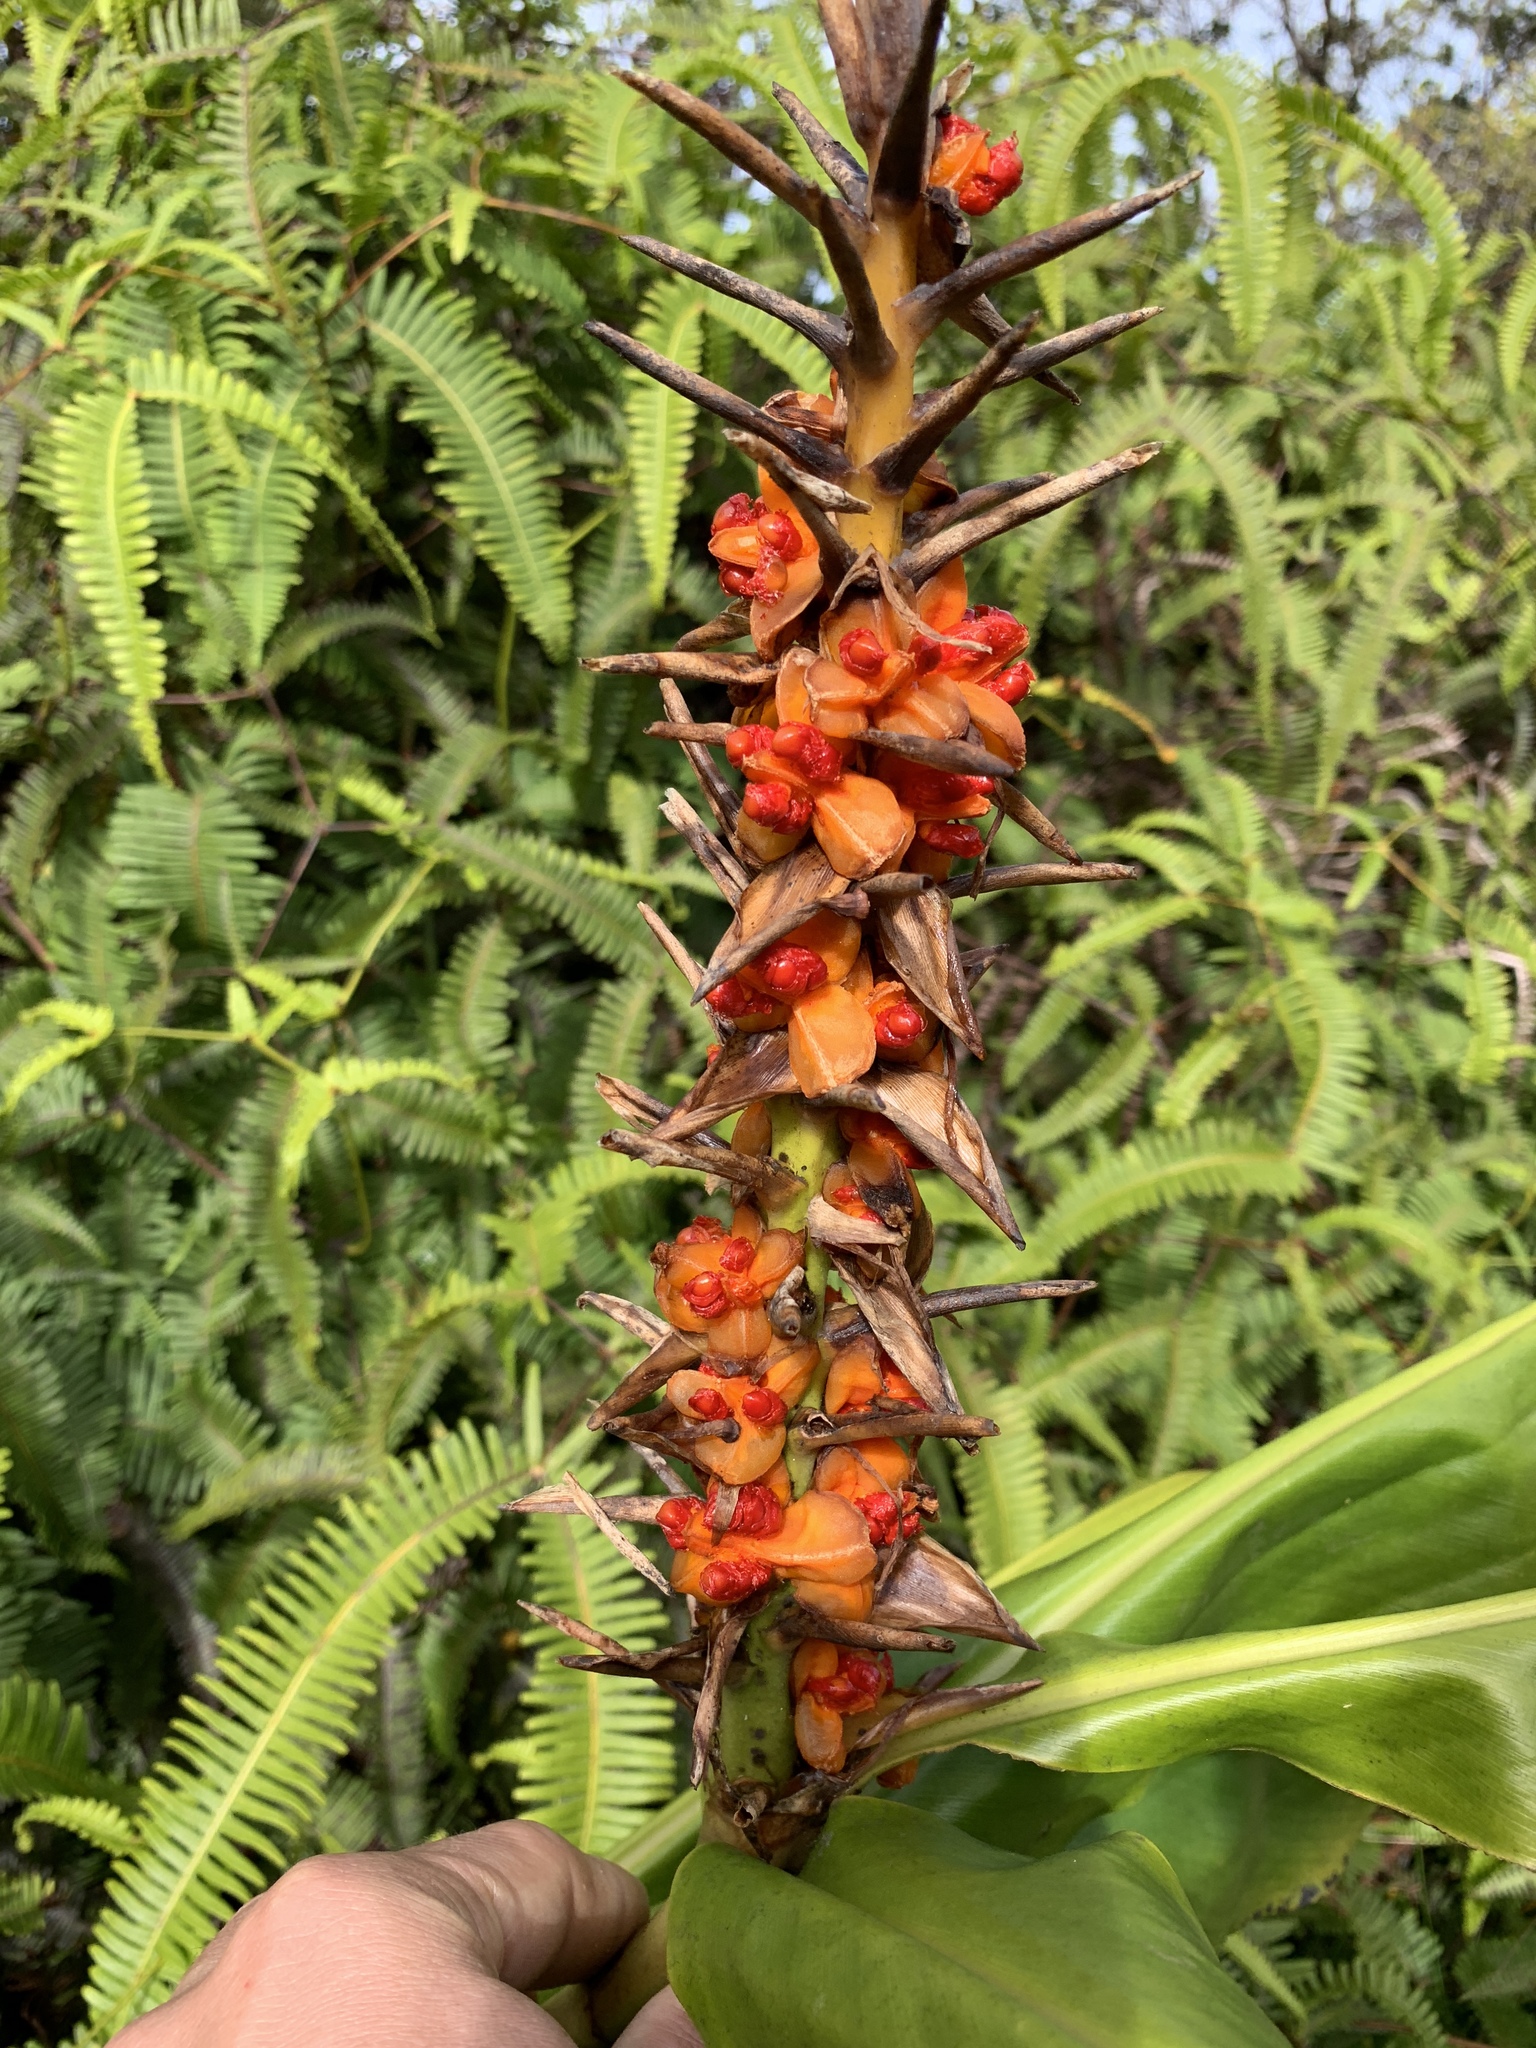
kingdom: Plantae
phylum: Tracheophyta
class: Liliopsida
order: Zingiberales
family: Zingiberaceae
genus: Hedychium
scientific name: Hedychium gardnerianum
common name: Himalayan ginger
